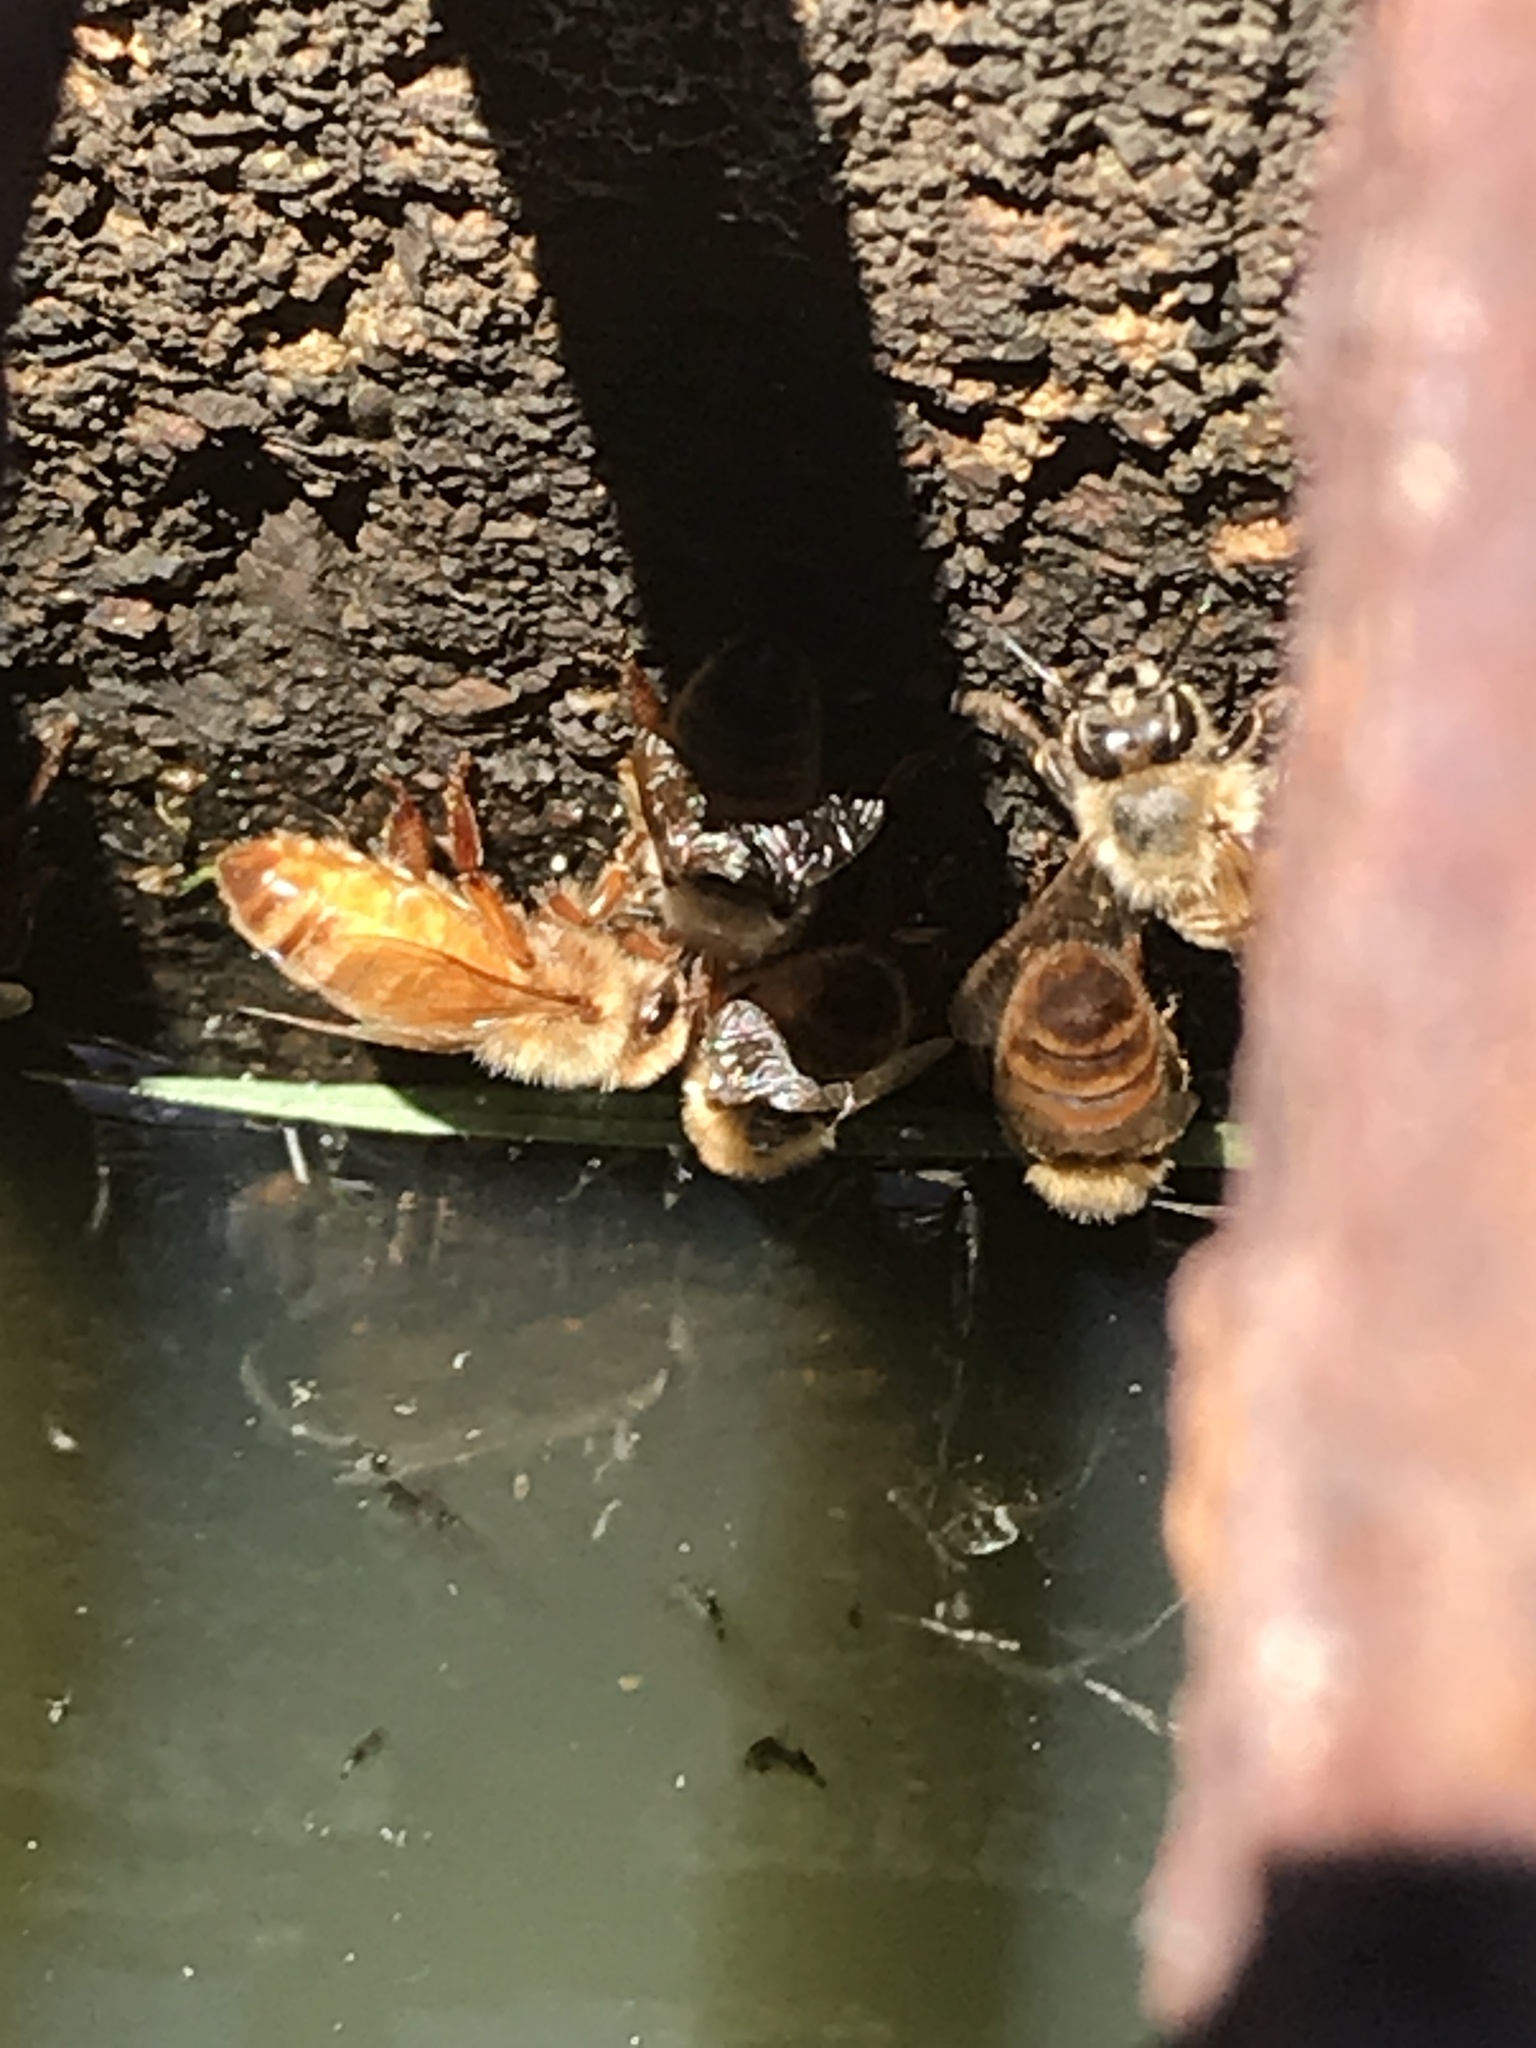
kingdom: Animalia
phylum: Arthropoda
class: Insecta
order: Hymenoptera
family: Apidae
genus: Apis
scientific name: Apis mellifera
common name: Honey bee
